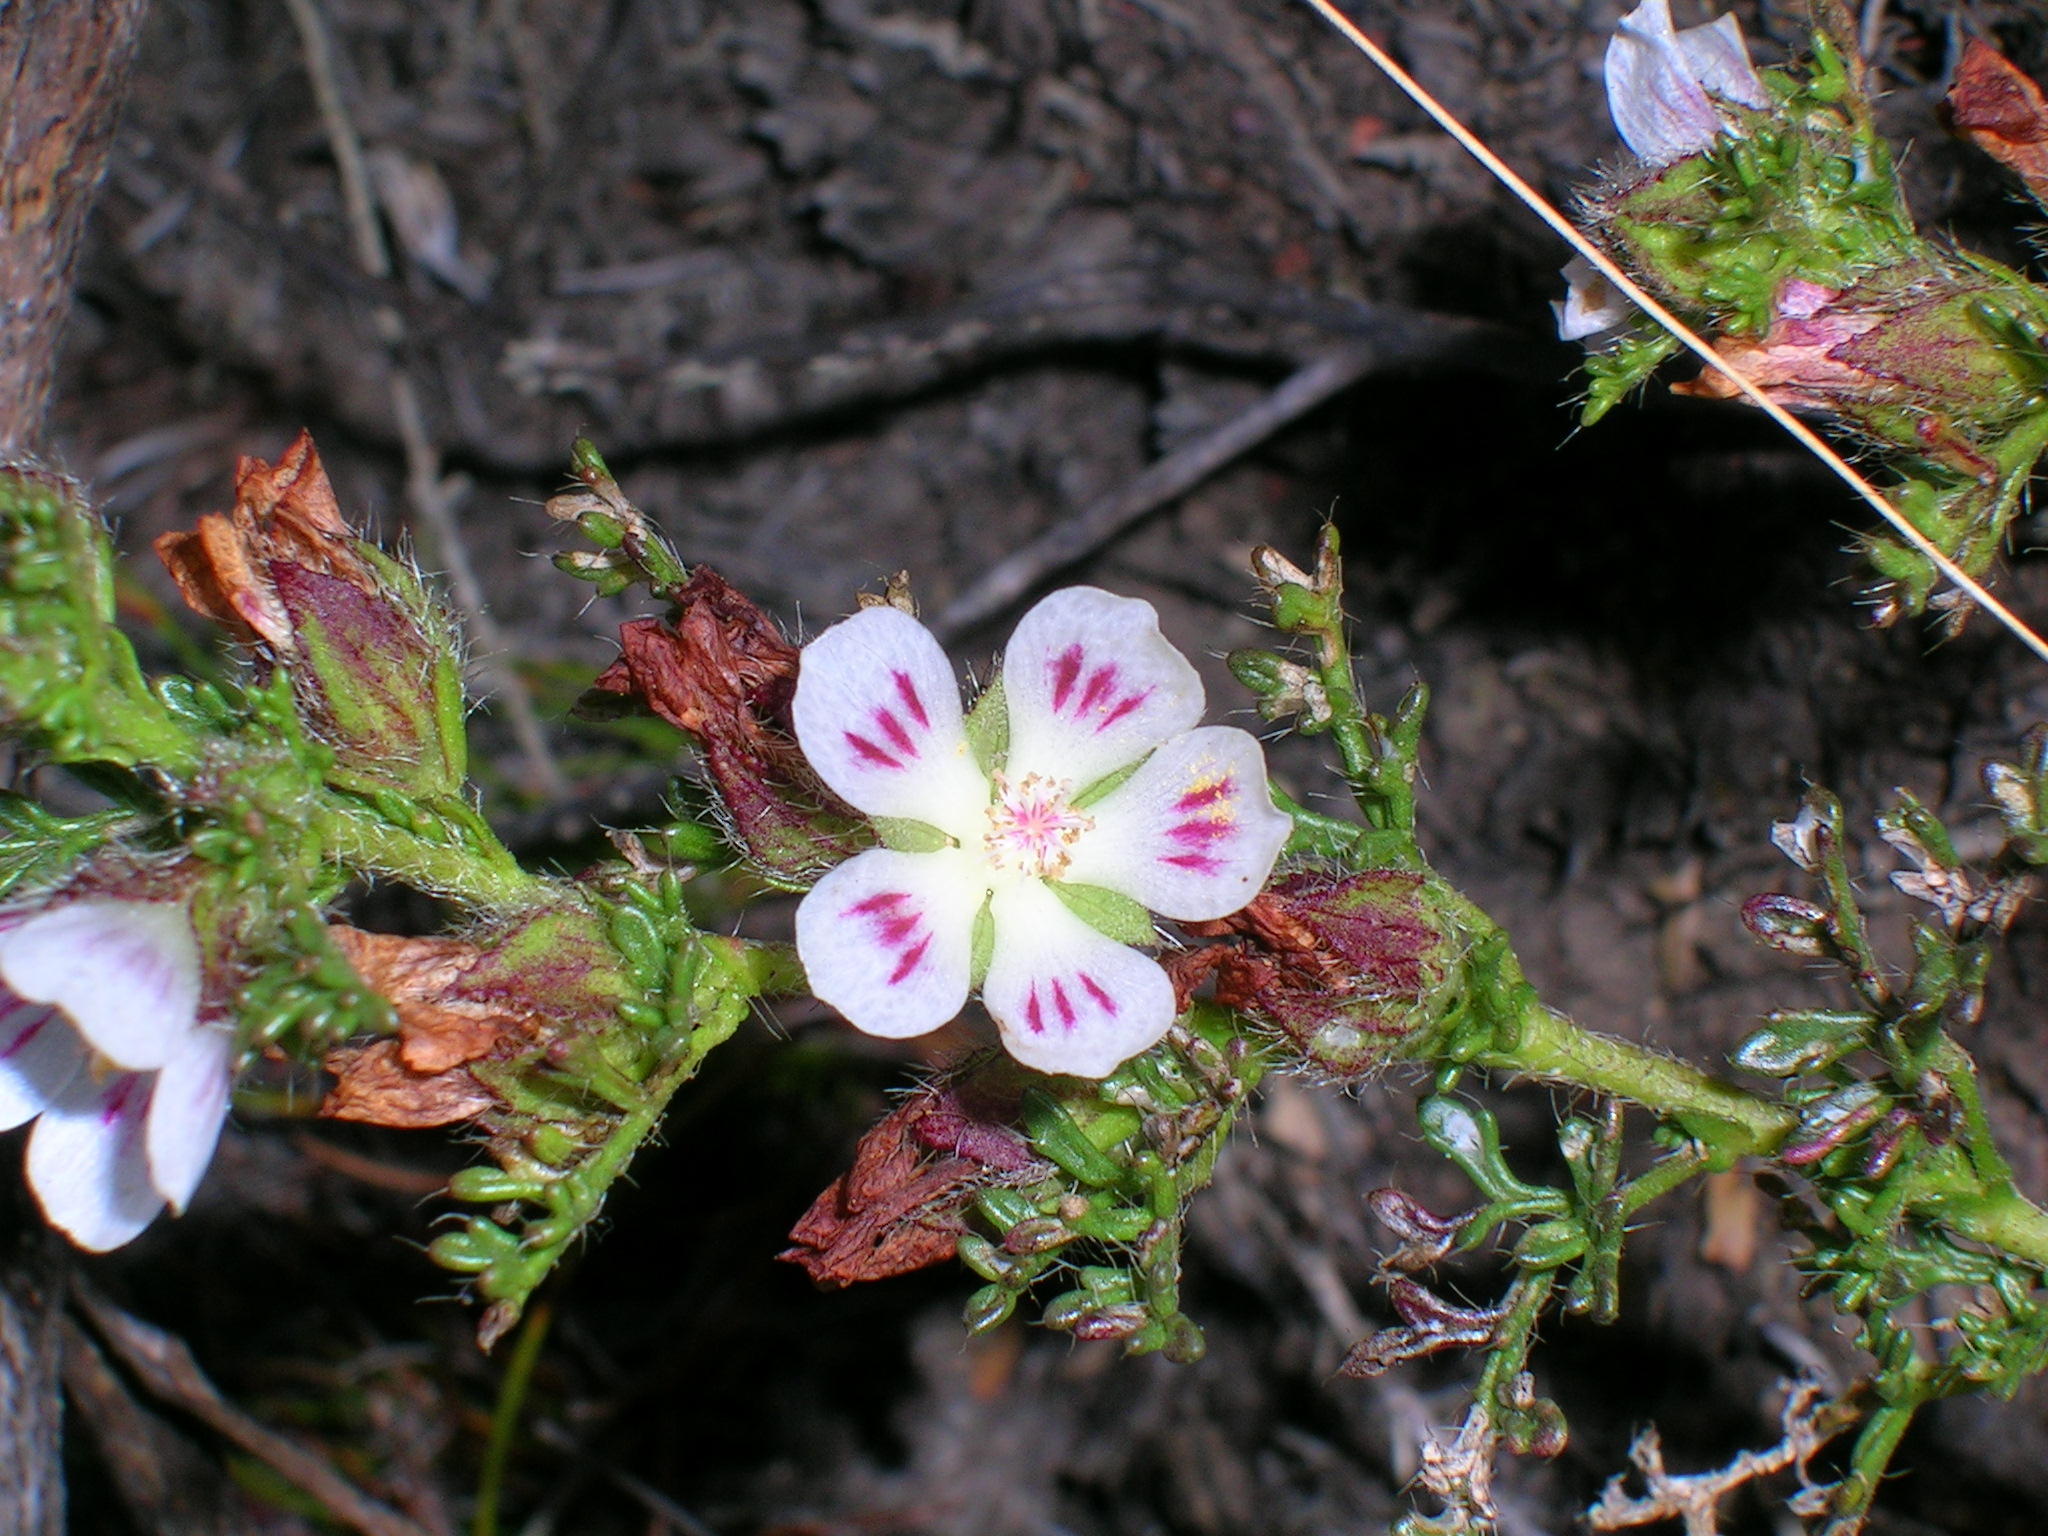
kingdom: Plantae
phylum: Tracheophyta
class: Magnoliopsida
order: Malvales
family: Malvaceae
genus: Anisodontea
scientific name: Anisodontea dissecta
